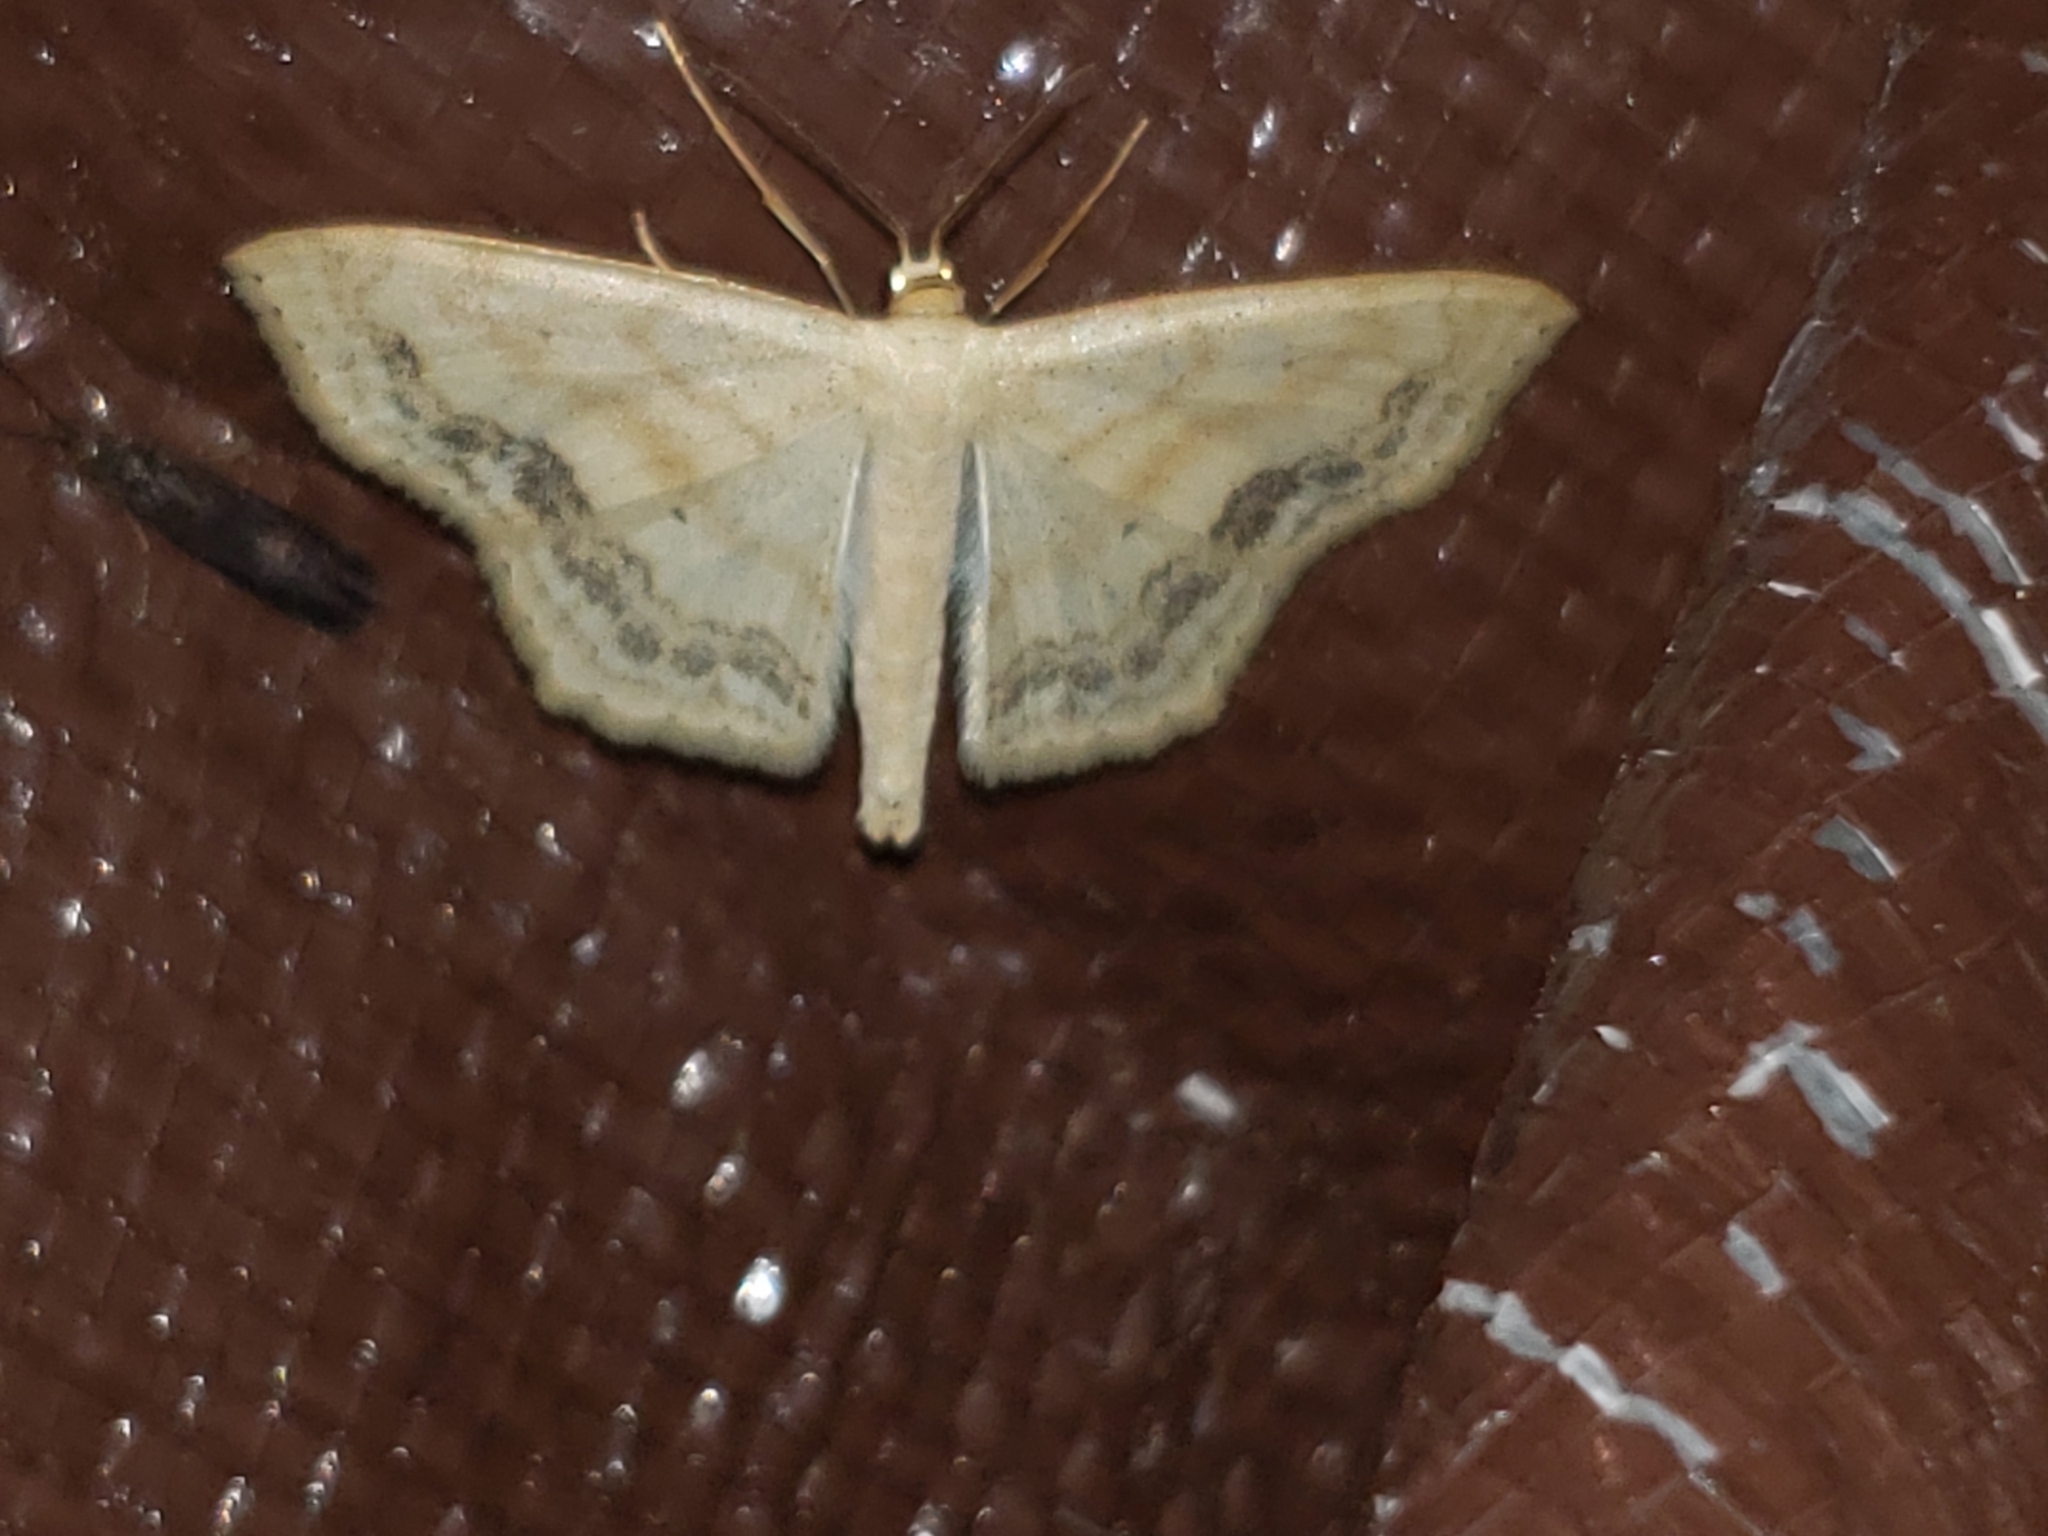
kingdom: Animalia
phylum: Arthropoda
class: Insecta
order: Lepidoptera
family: Geometridae
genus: Scopula
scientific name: Scopula limboundata
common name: Large lace border
